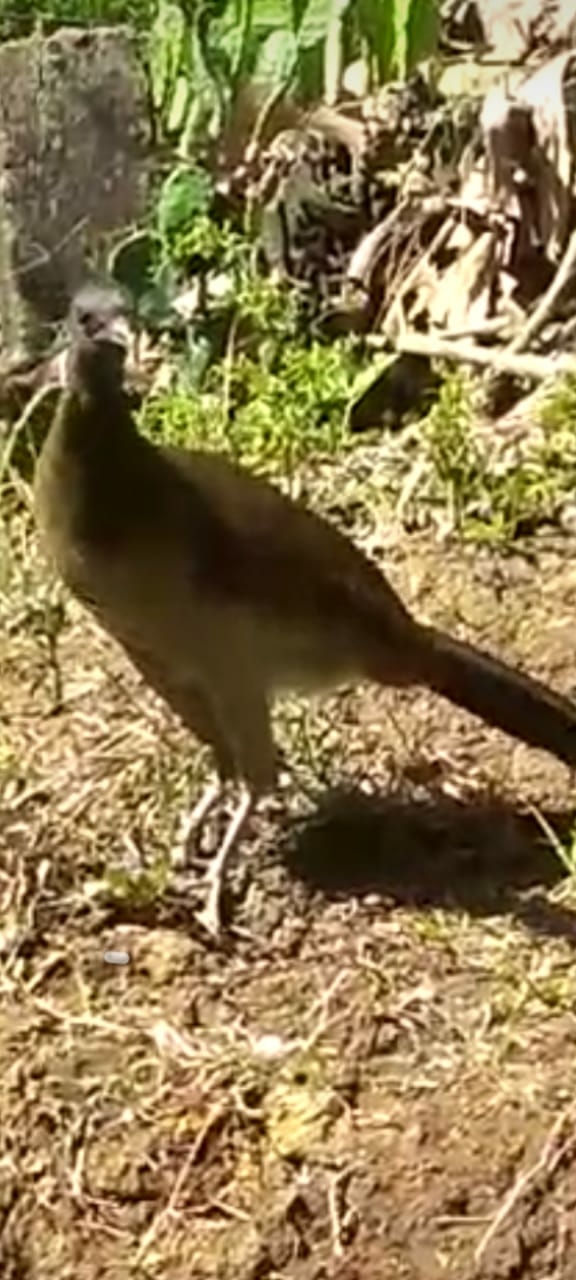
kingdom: Animalia
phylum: Chordata
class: Aves
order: Galliformes
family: Cracidae
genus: Ortalis
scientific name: Ortalis cinereiceps
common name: Grey-headed chachalaca
